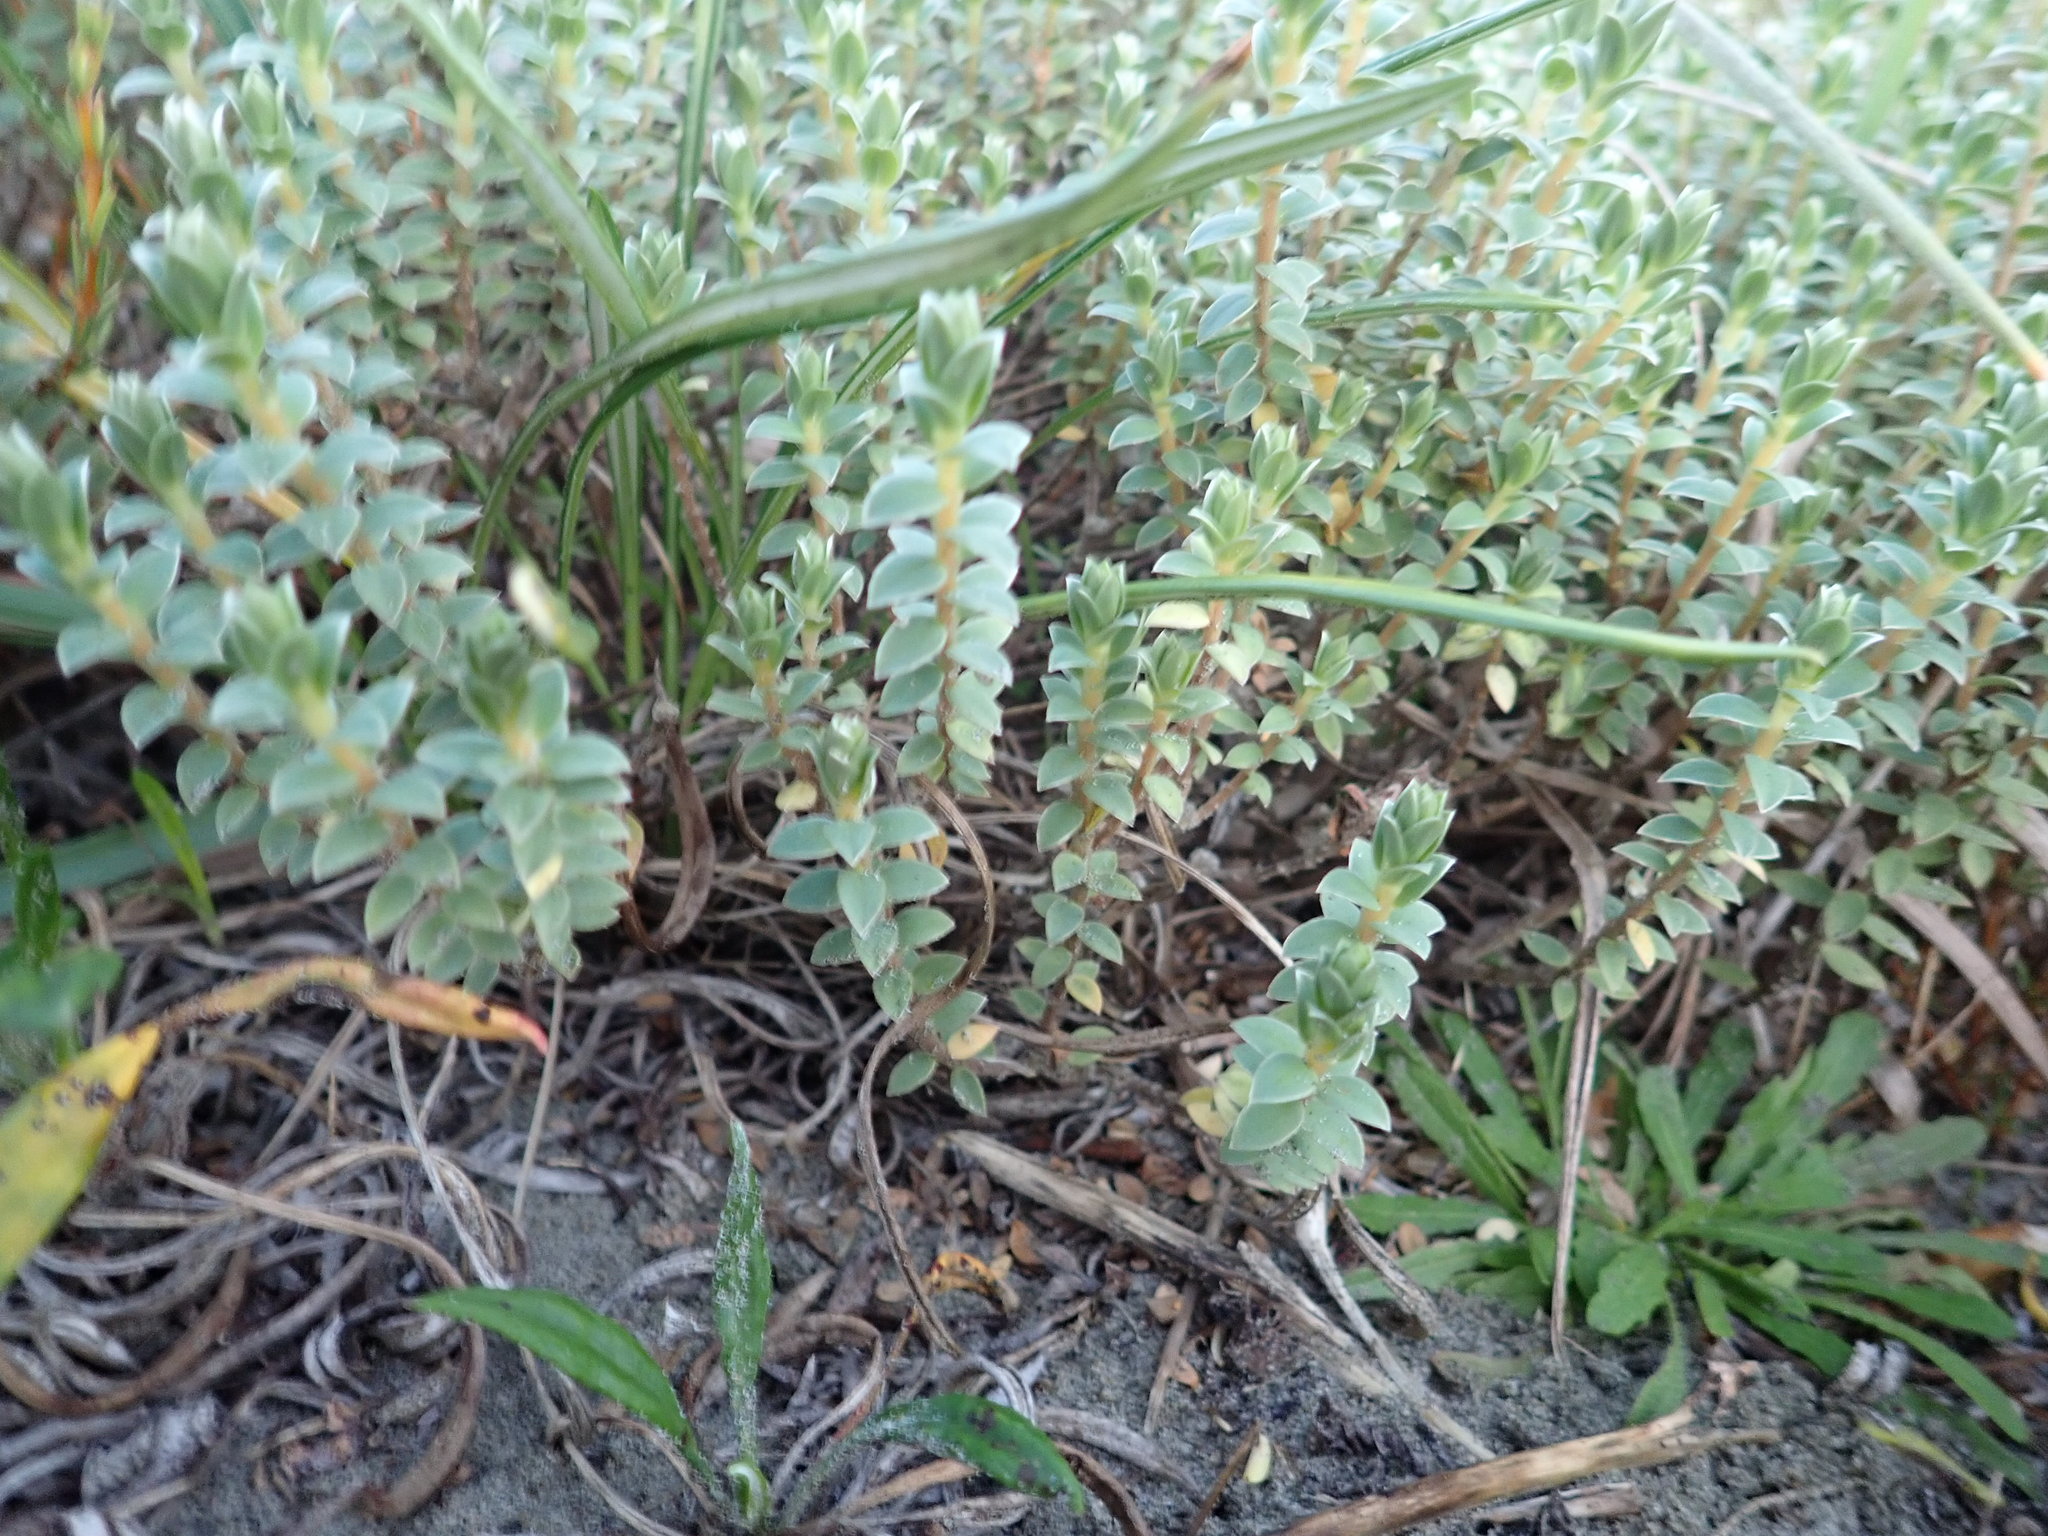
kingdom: Plantae
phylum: Tracheophyta
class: Magnoliopsida
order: Malvales
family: Thymelaeaceae
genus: Pimelea
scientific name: Pimelea villosa
